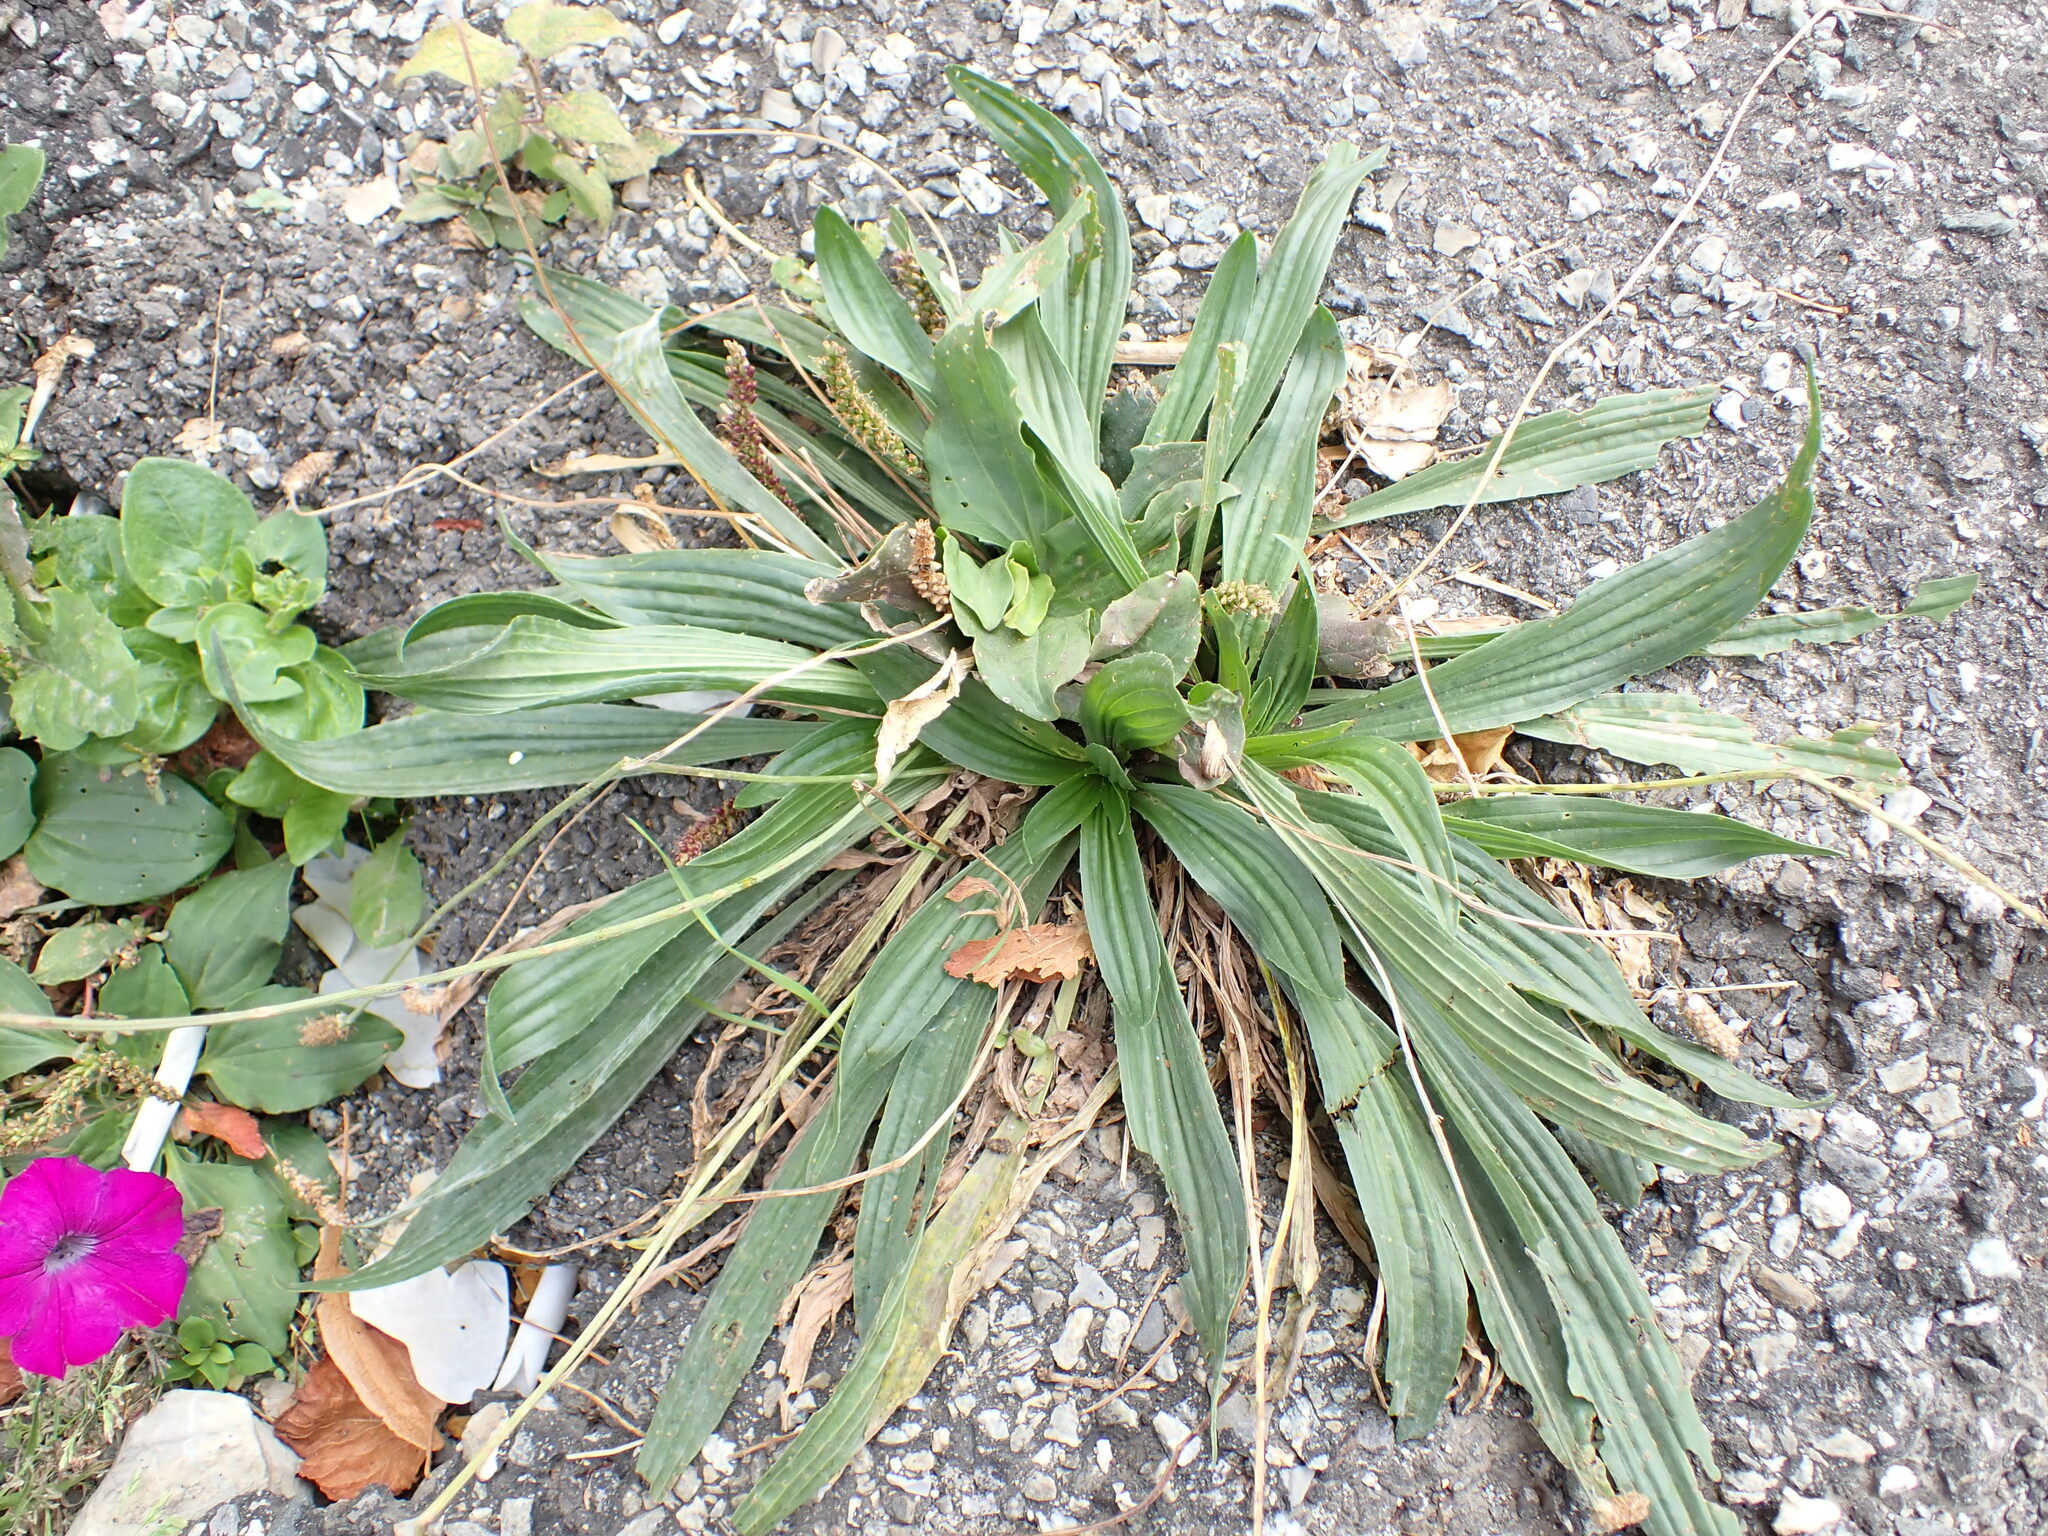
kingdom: Plantae
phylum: Tracheophyta
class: Magnoliopsida
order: Lamiales
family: Plantaginaceae
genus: Plantago
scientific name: Plantago lanceolata
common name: Ribwort plantain
